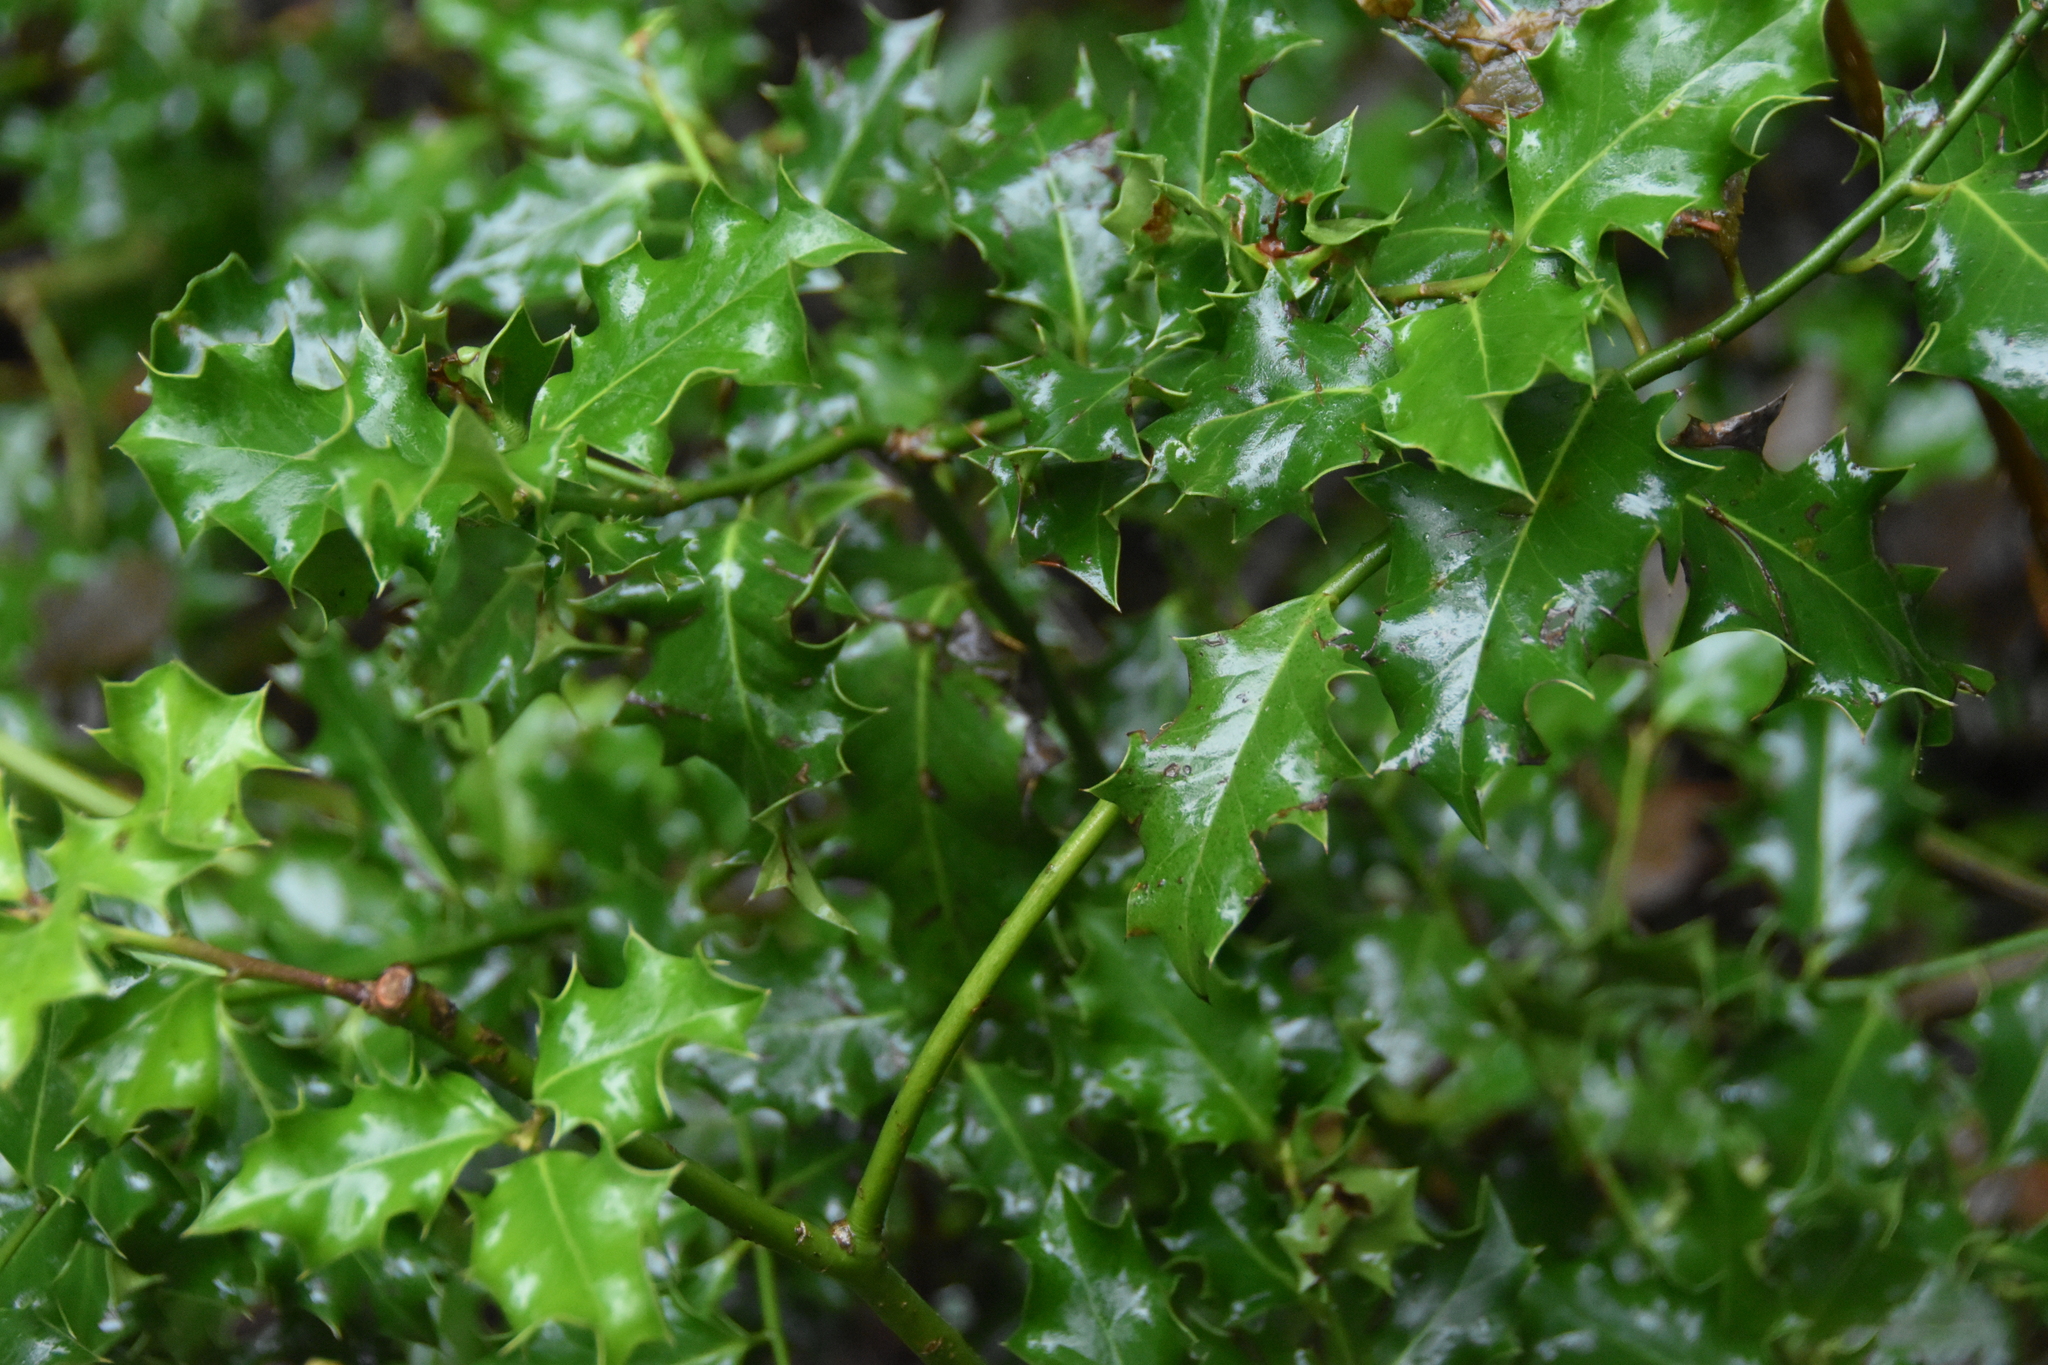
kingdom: Plantae
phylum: Tracheophyta
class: Magnoliopsida
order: Aquifoliales
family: Aquifoliaceae
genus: Ilex
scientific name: Ilex aquifolium
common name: English holly
